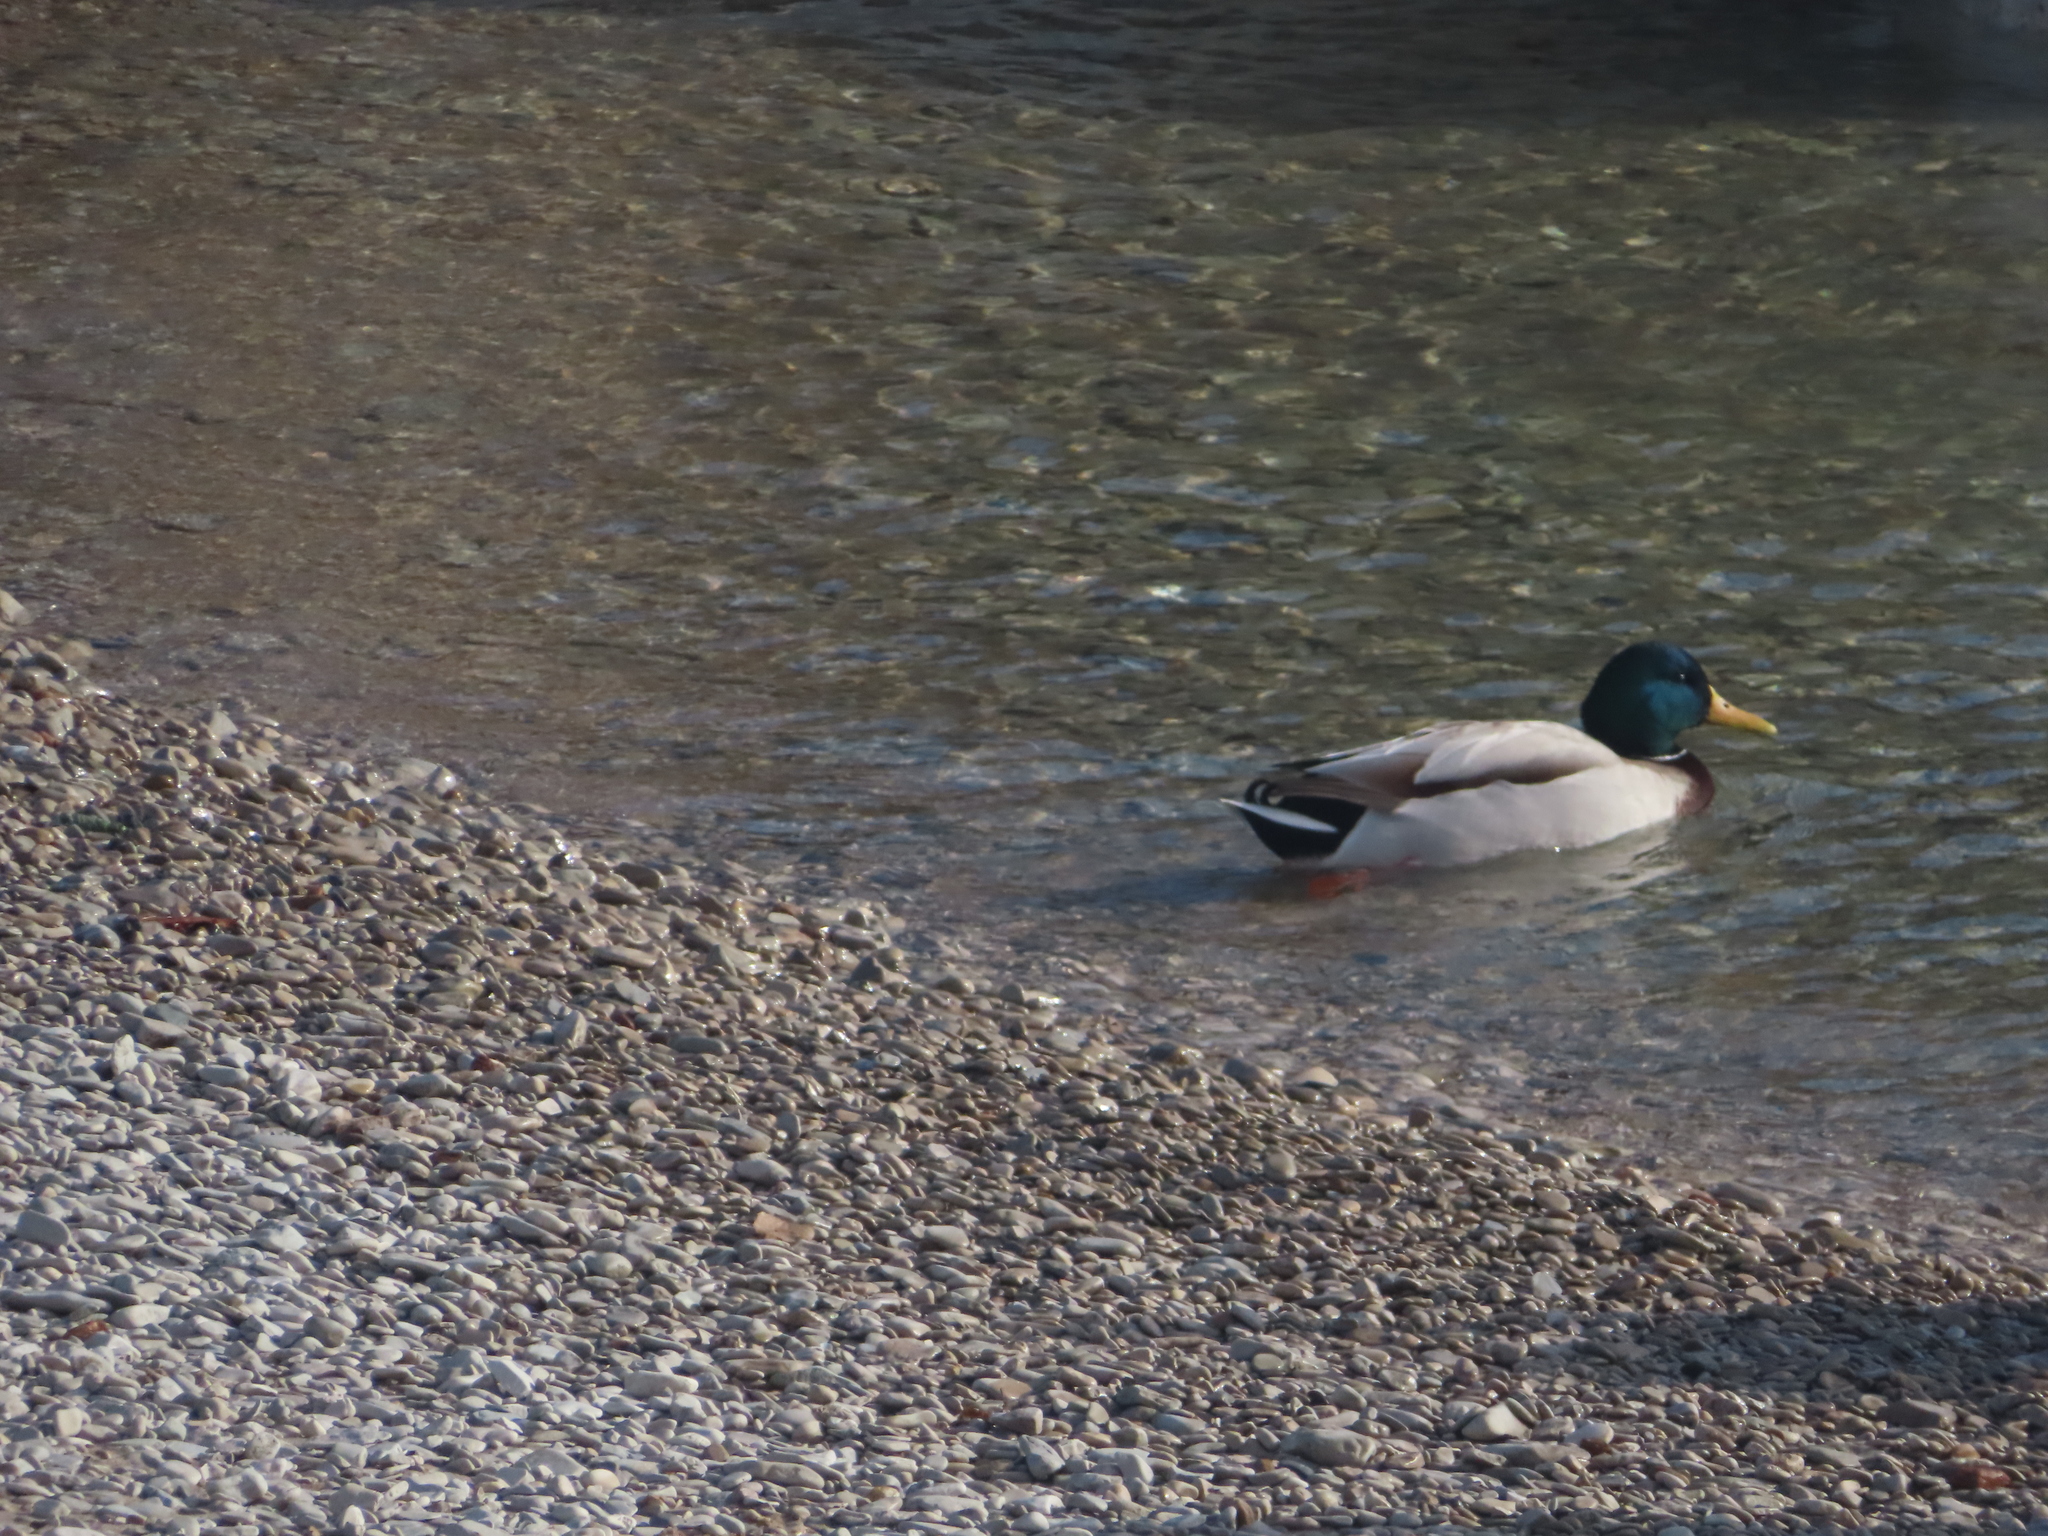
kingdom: Animalia
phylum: Chordata
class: Aves
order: Anseriformes
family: Anatidae
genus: Anas
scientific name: Anas platyrhynchos
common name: Mallard
